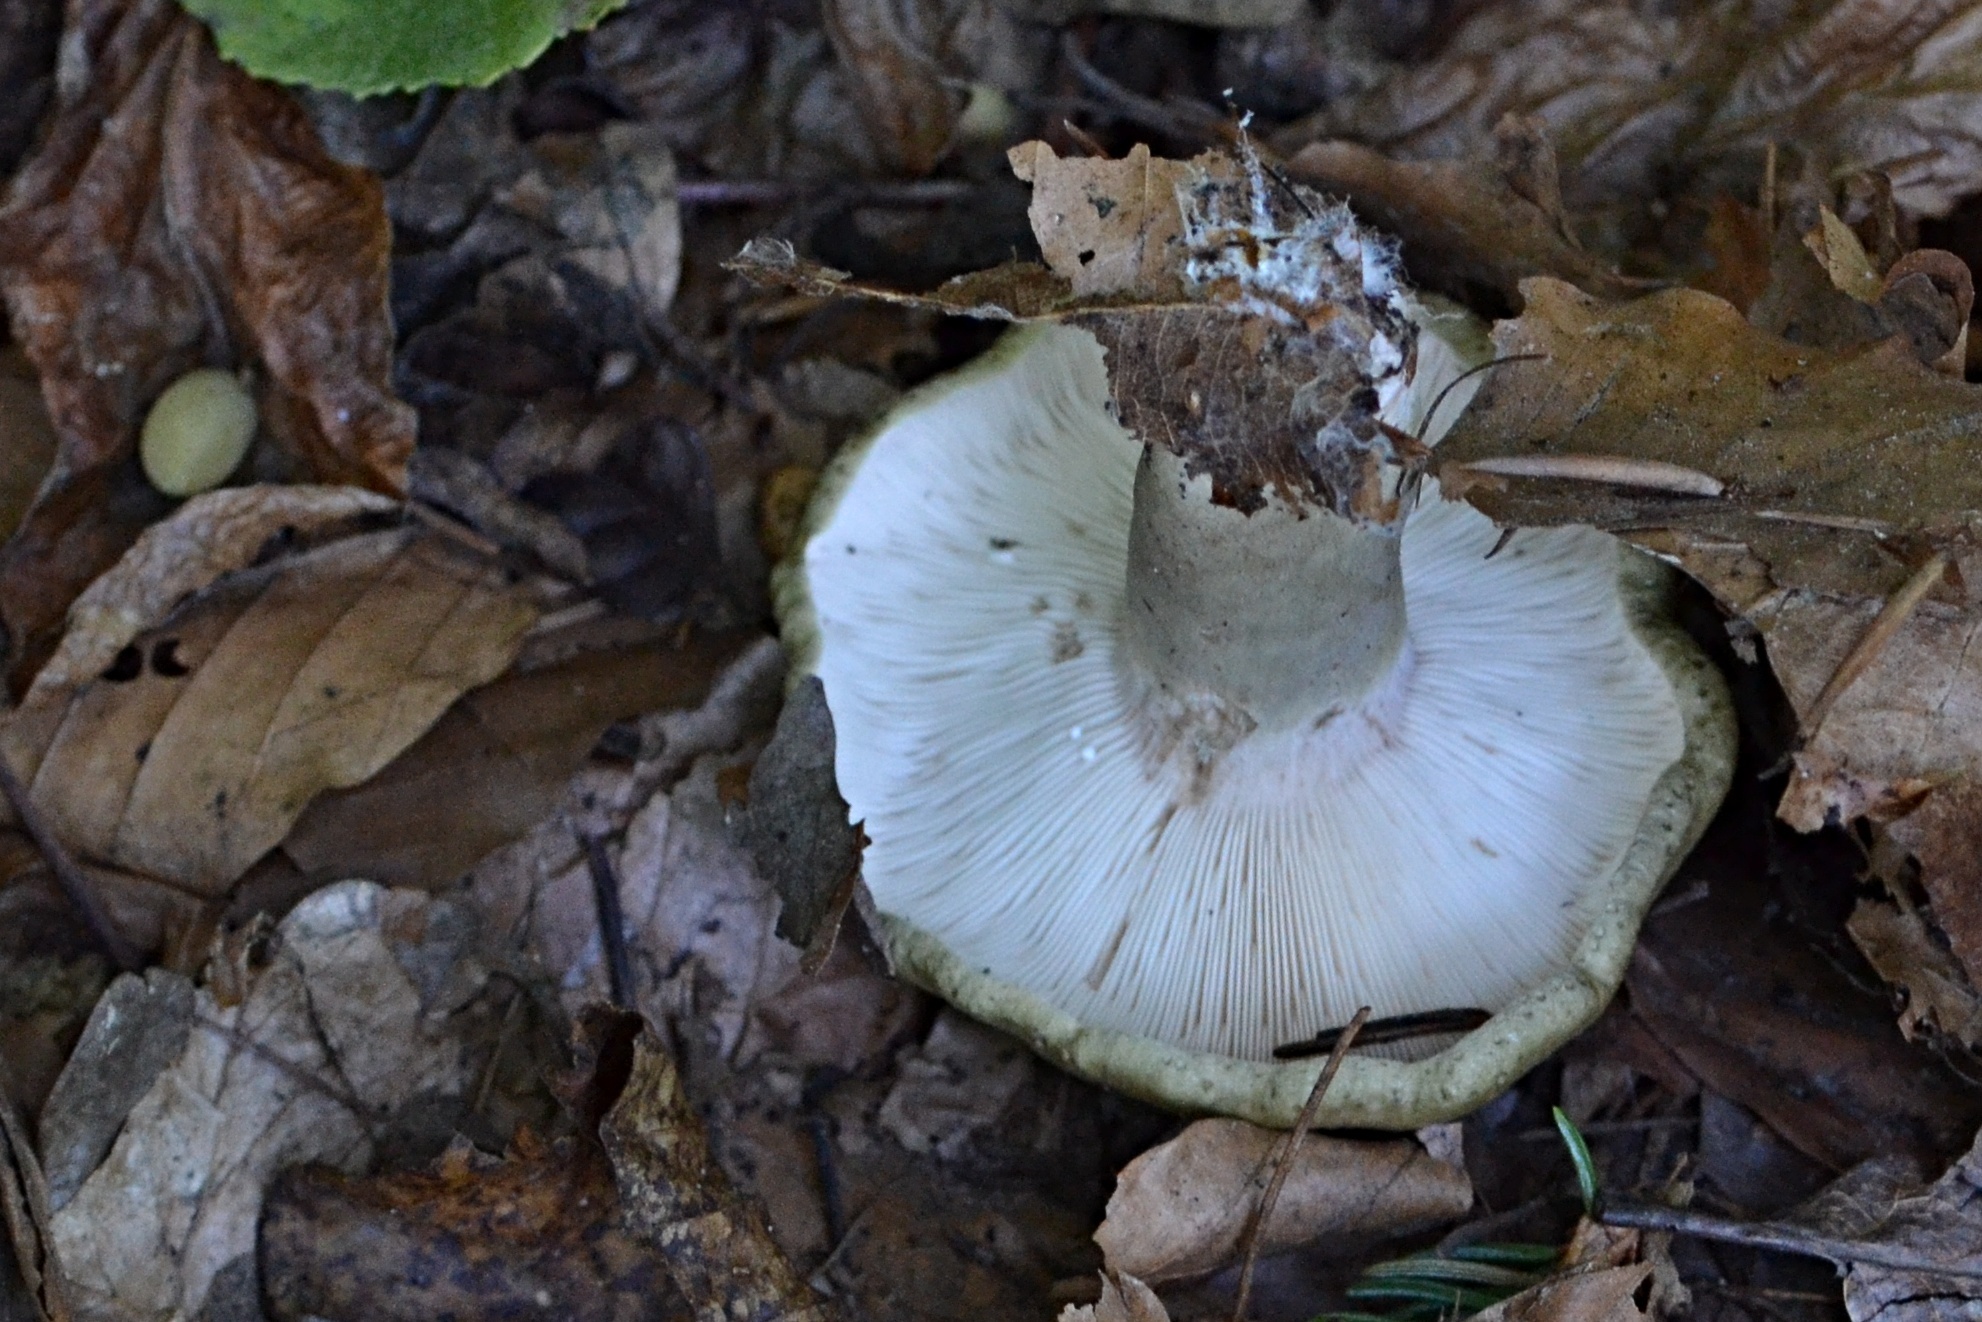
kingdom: Fungi
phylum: Basidiomycota
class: Agaricomycetes
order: Russulales
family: Russulaceae
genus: Lactarius
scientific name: Lactarius blennius
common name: Beech milkcap
